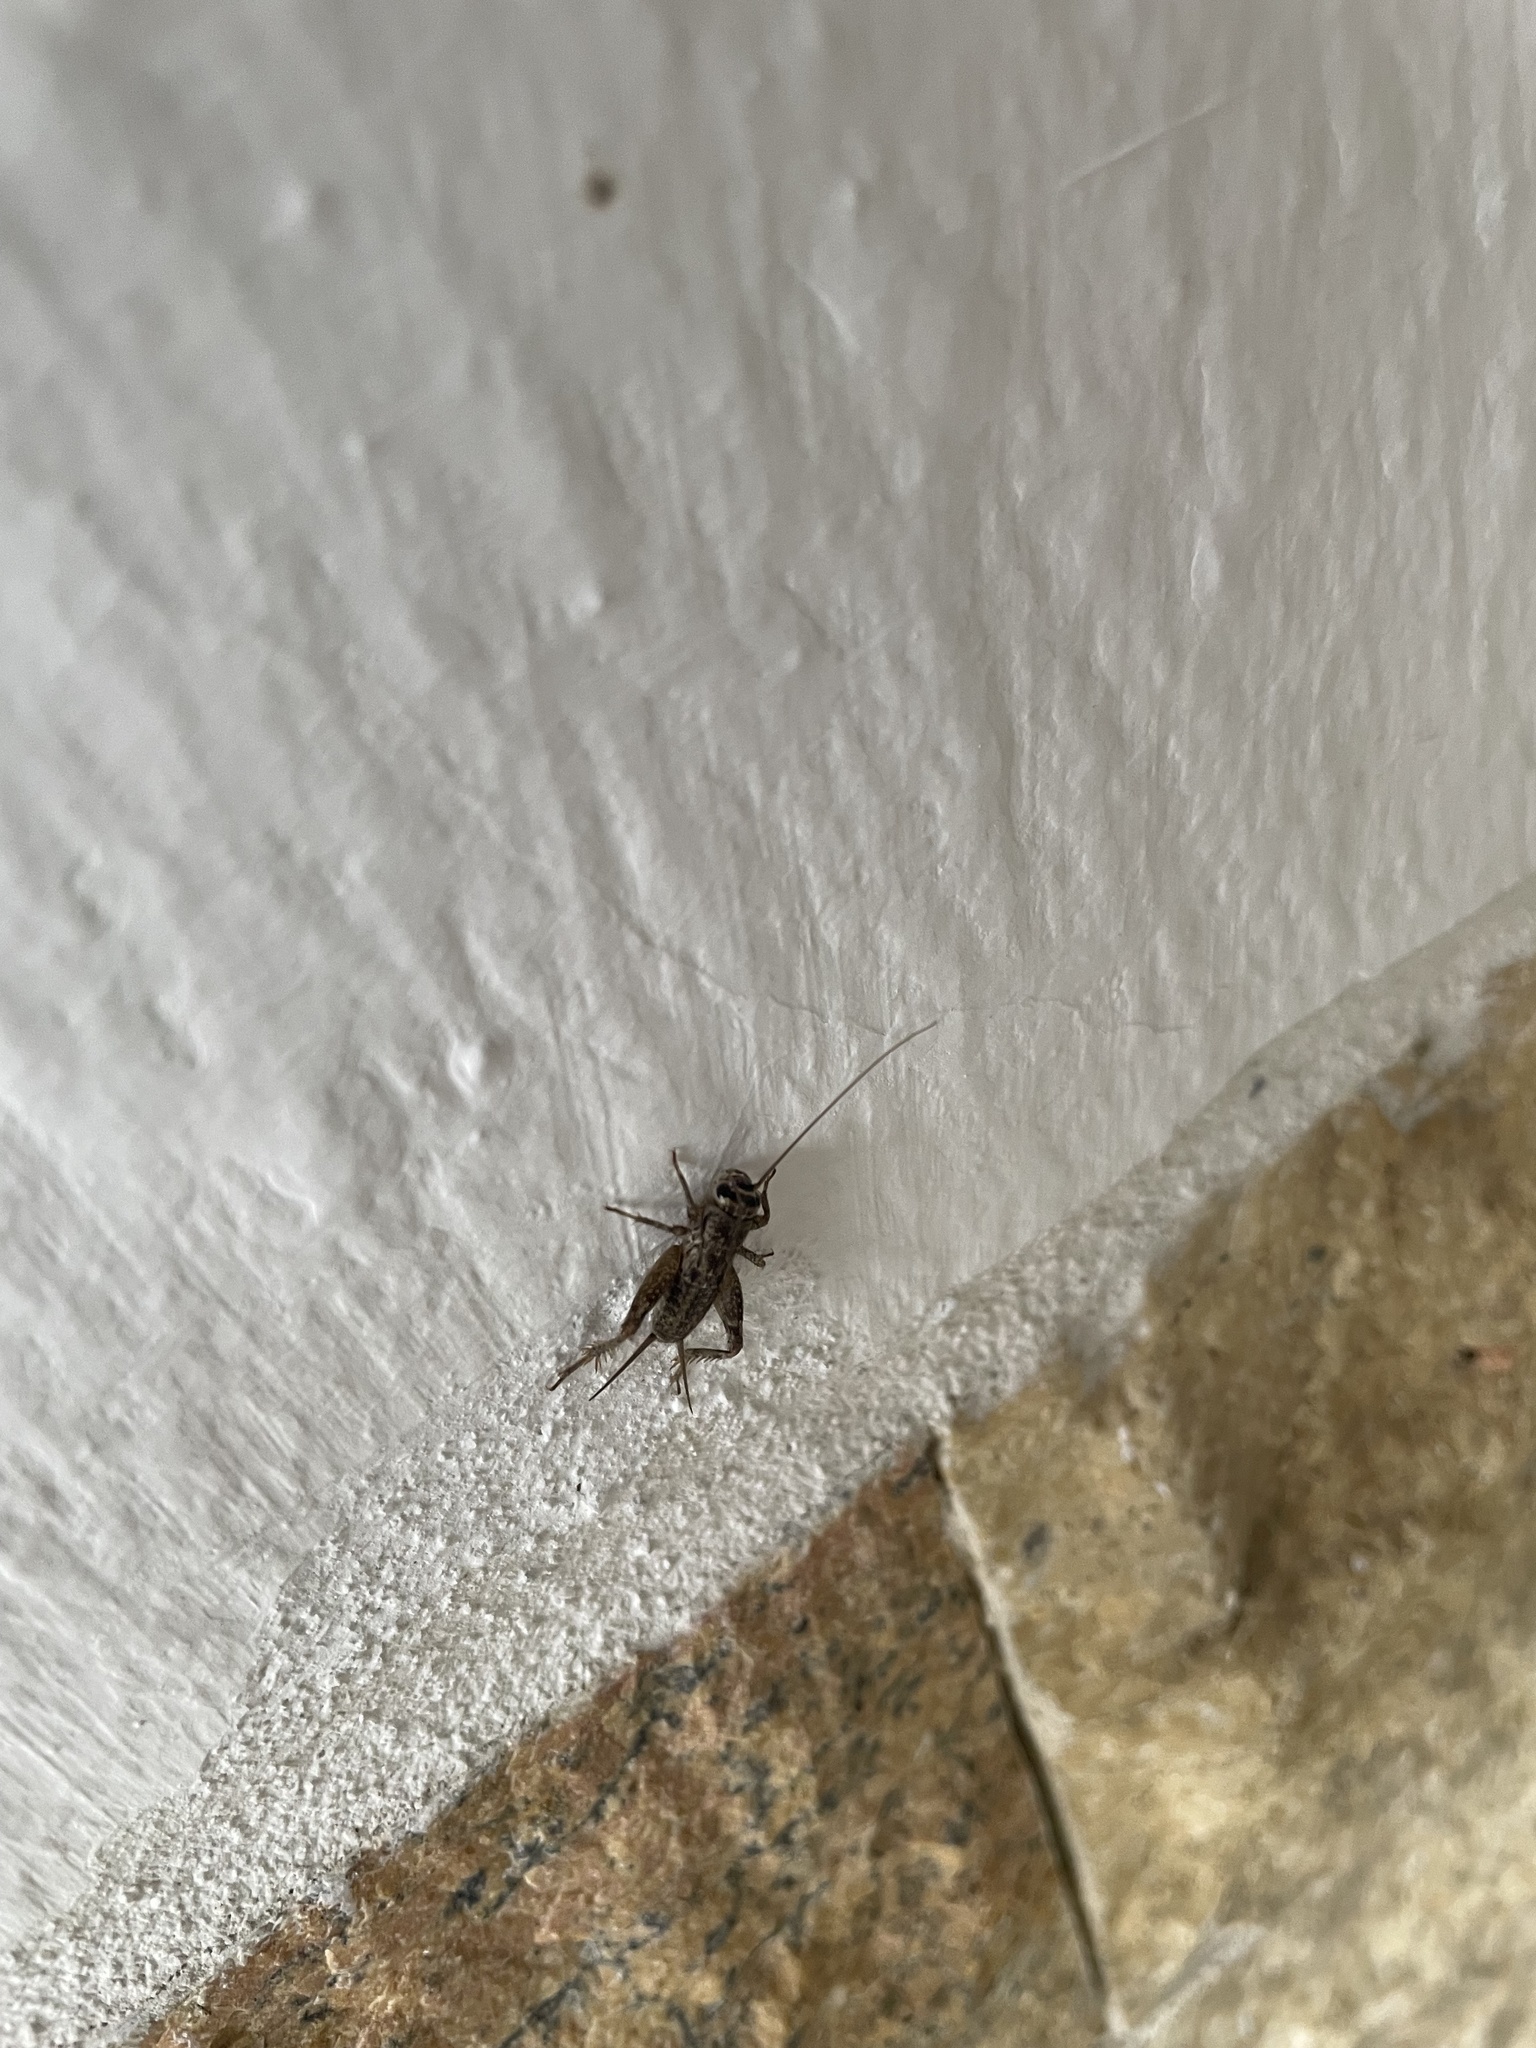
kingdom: Animalia
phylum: Arthropoda
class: Insecta
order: Orthoptera
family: Gryllidae
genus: Modicogryllus
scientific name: Modicogryllus
